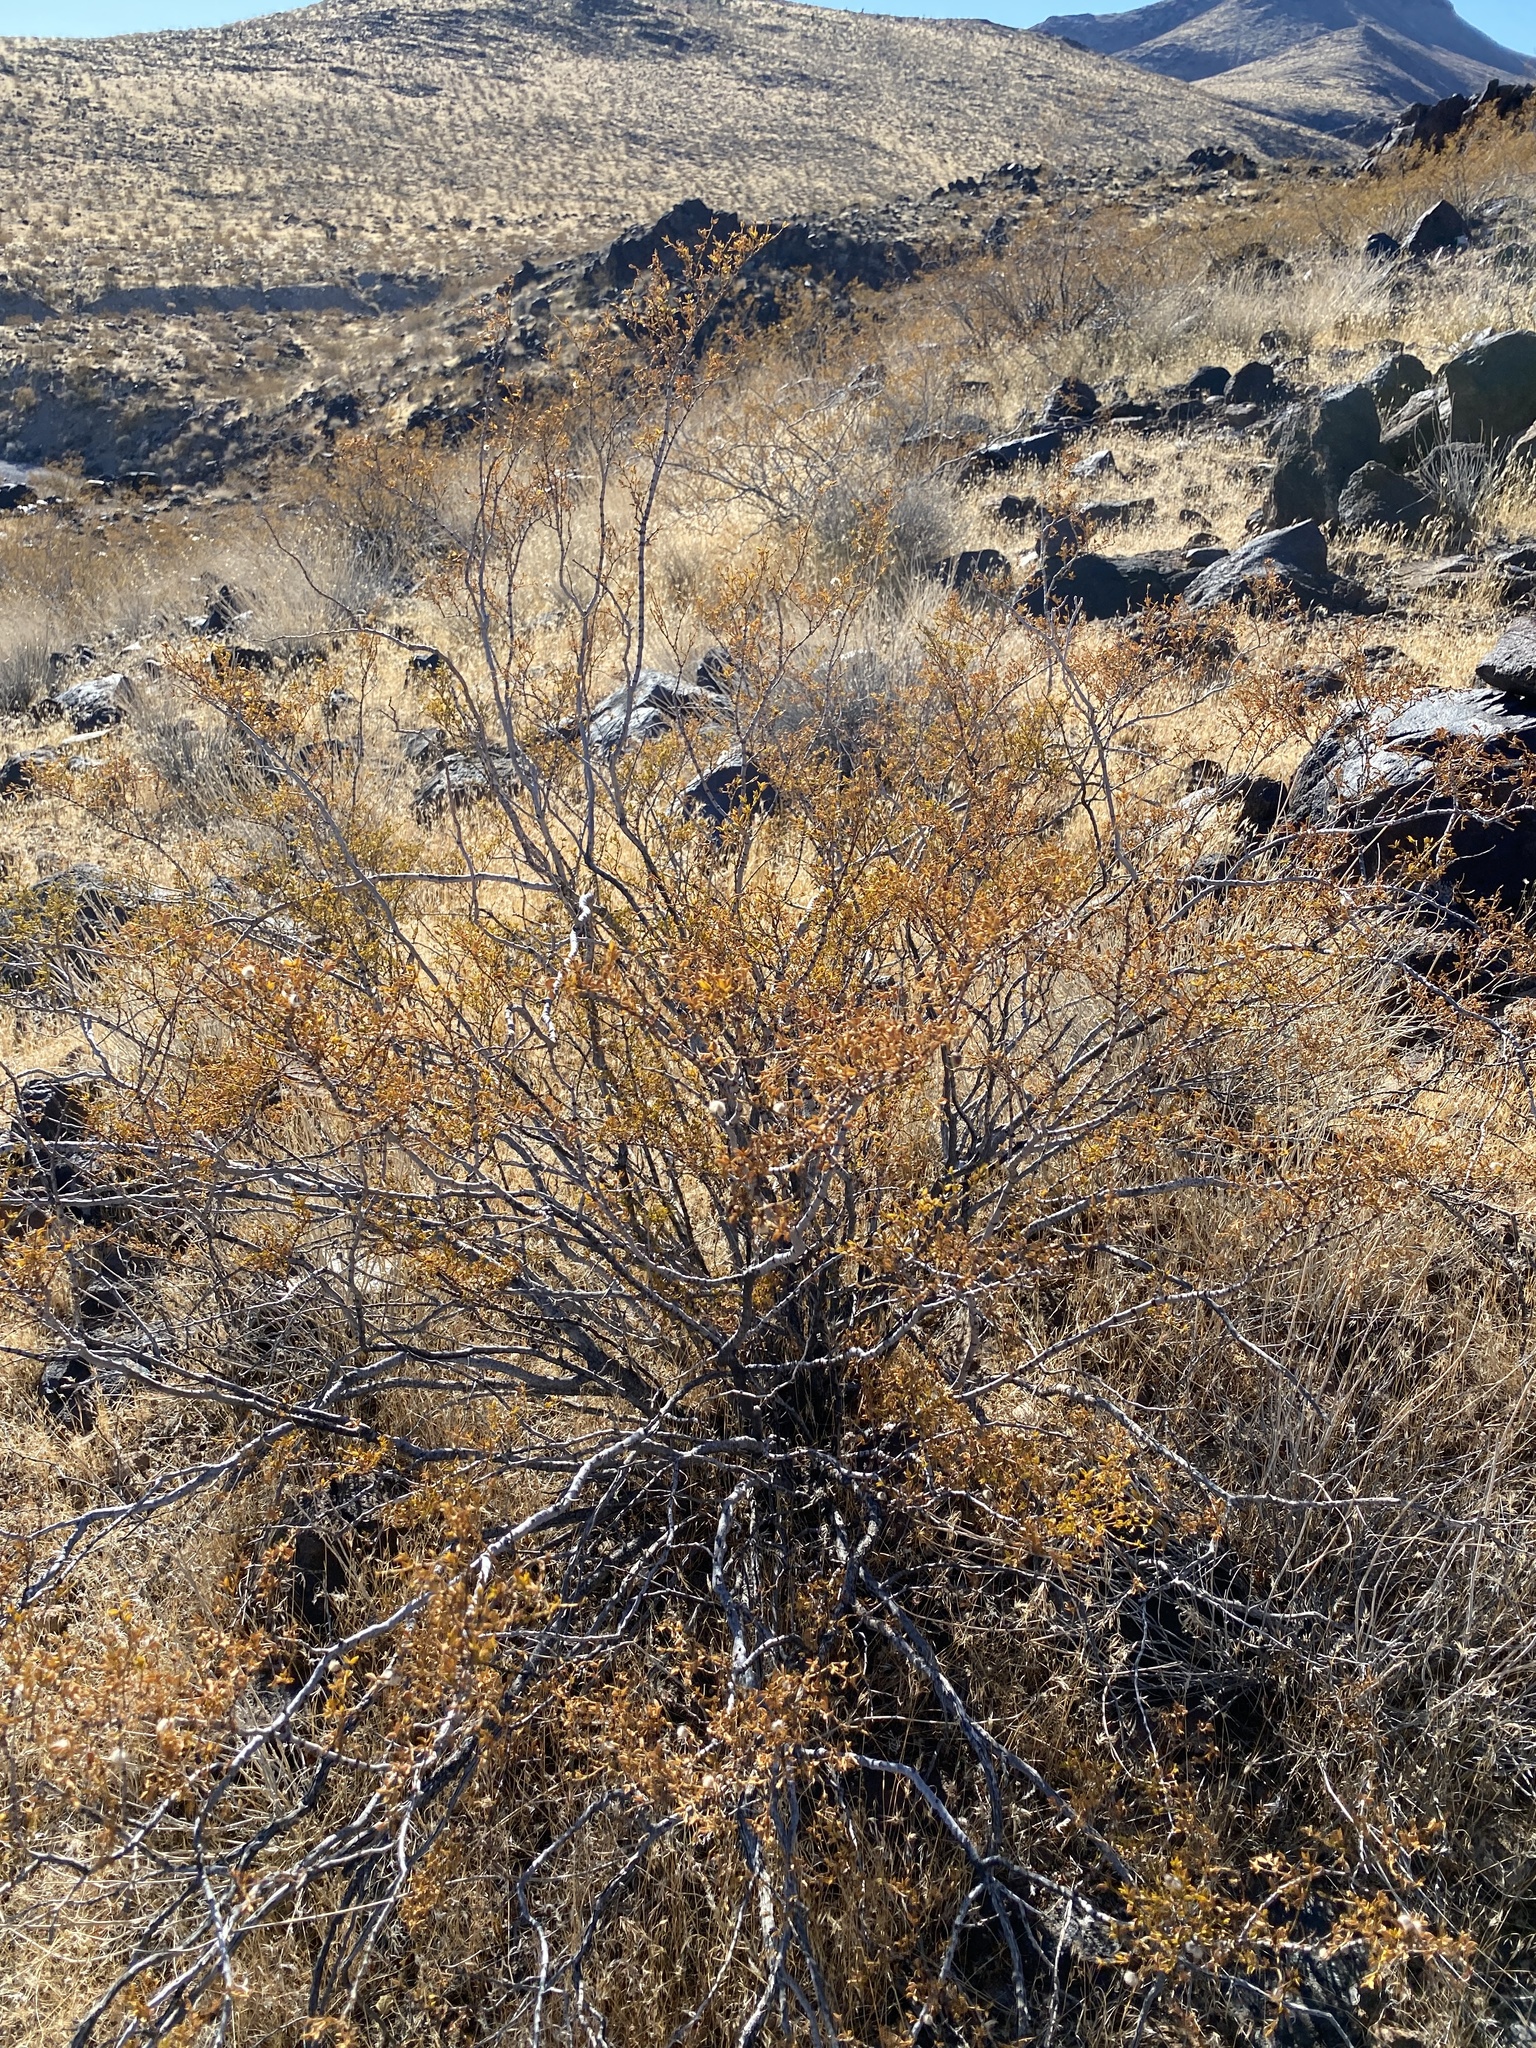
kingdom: Plantae
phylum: Tracheophyta
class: Magnoliopsida
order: Zygophyllales
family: Zygophyllaceae
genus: Larrea
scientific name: Larrea tridentata
